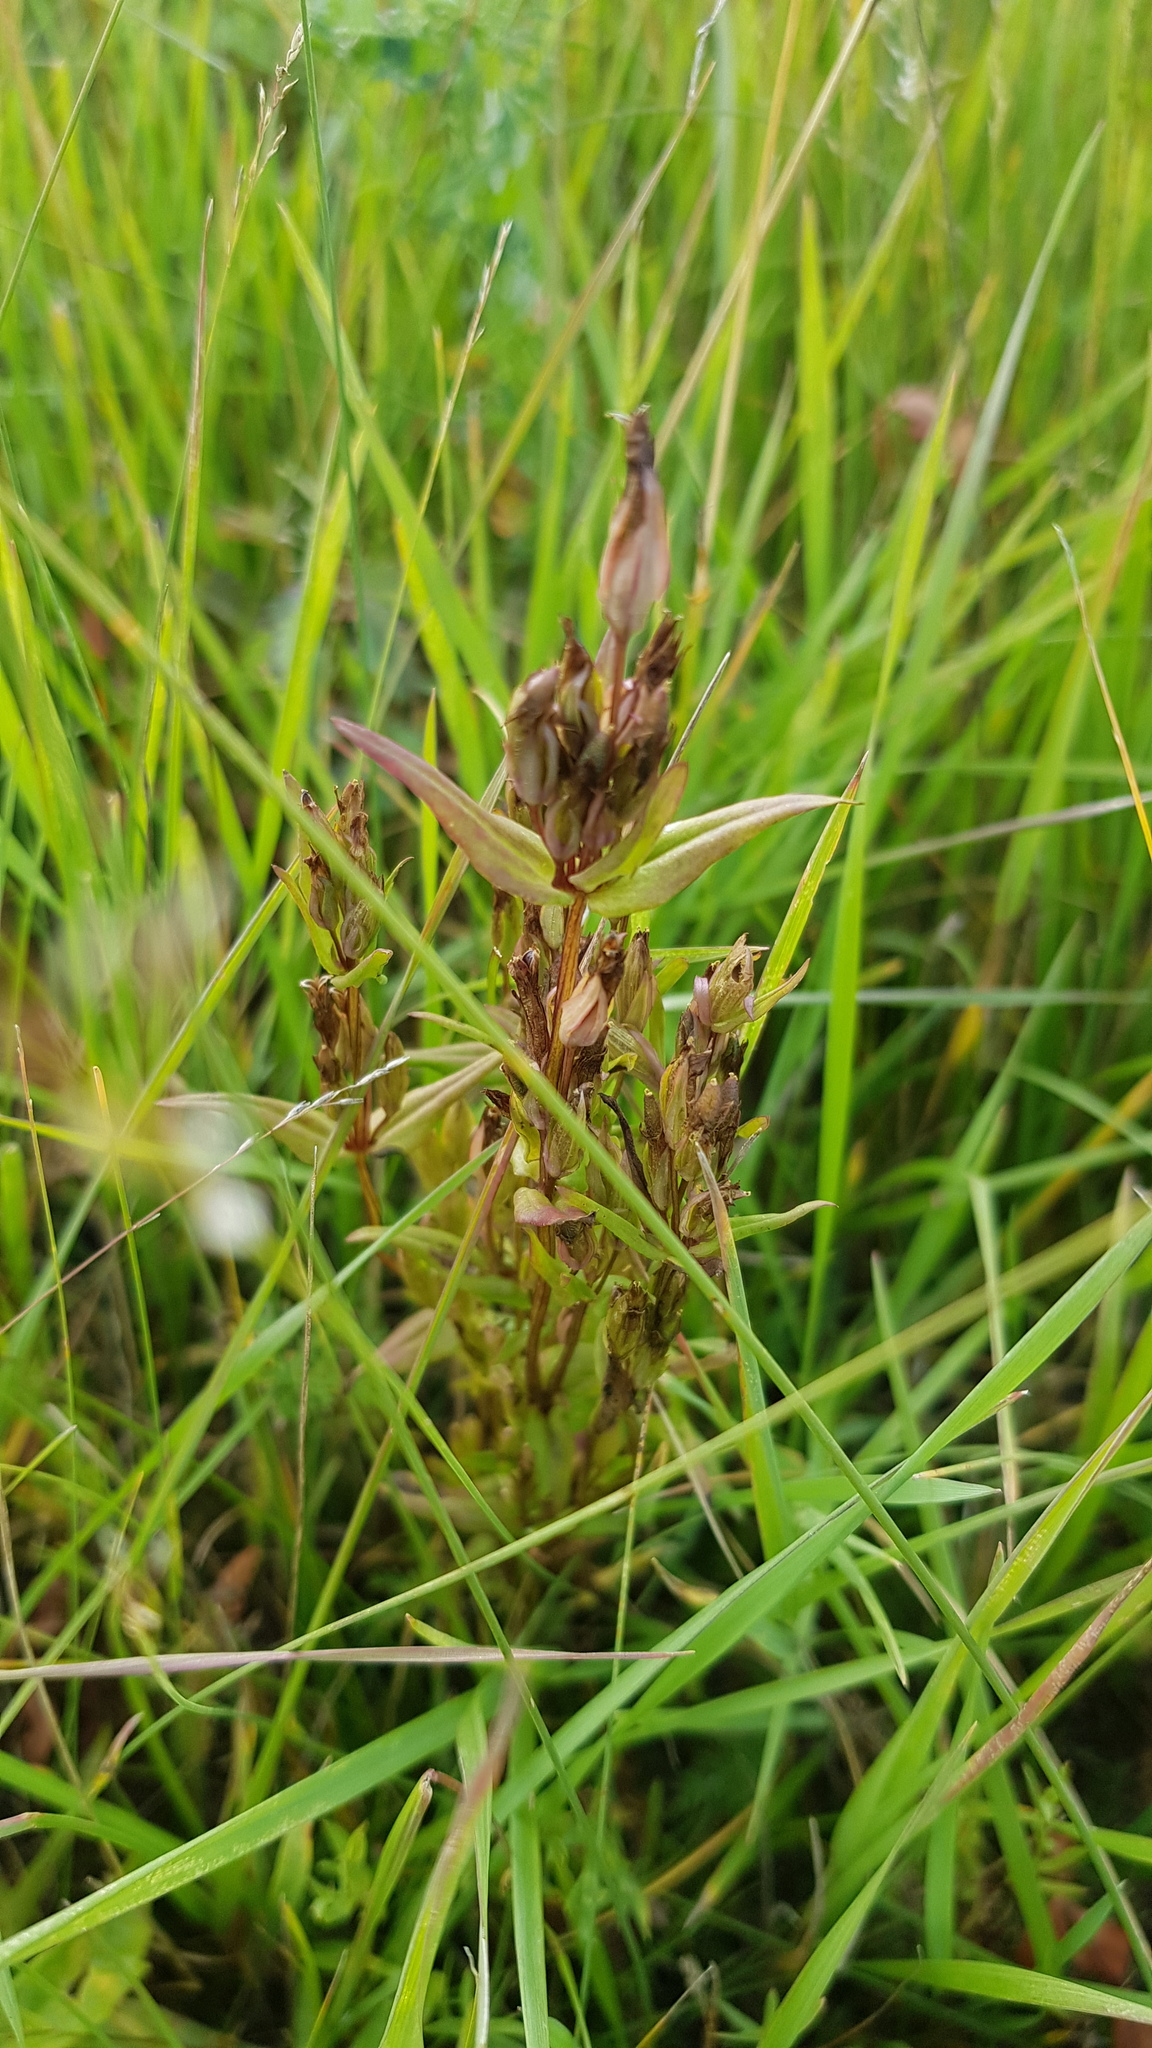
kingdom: Plantae
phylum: Tracheophyta
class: Magnoliopsida
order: Gentianales
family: Gentianaceae
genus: Gentianella
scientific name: Gentianella amarella
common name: Autumn gentian
